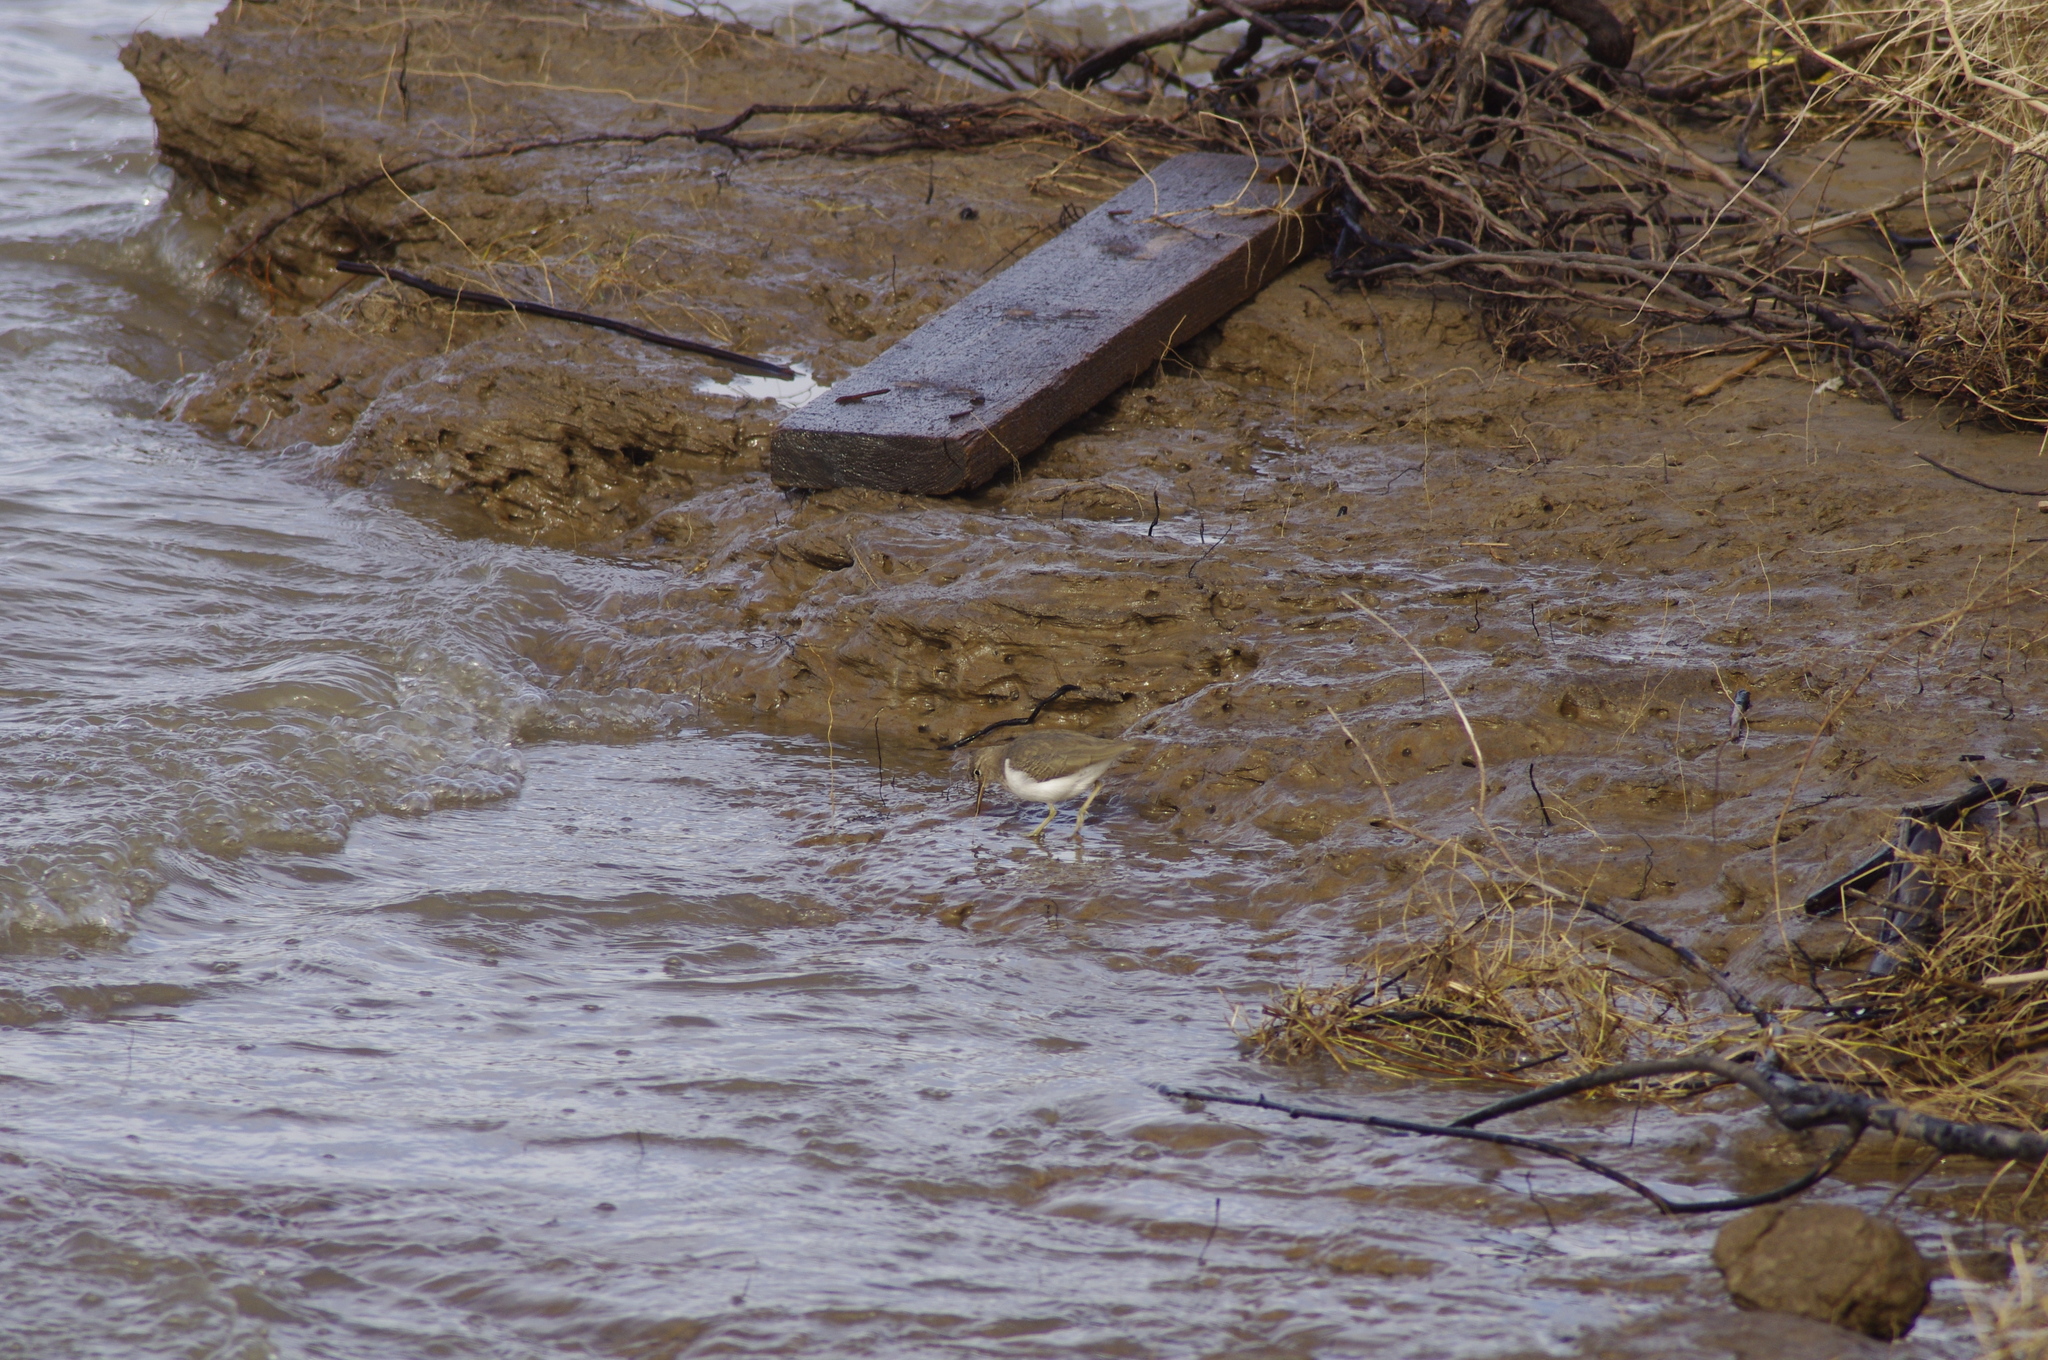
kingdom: Animalia
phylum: Chordata
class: Aves
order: Charadriiformes
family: Scolopacidae
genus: Actitis
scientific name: Actitis macularius
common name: Spotted sandpiper
